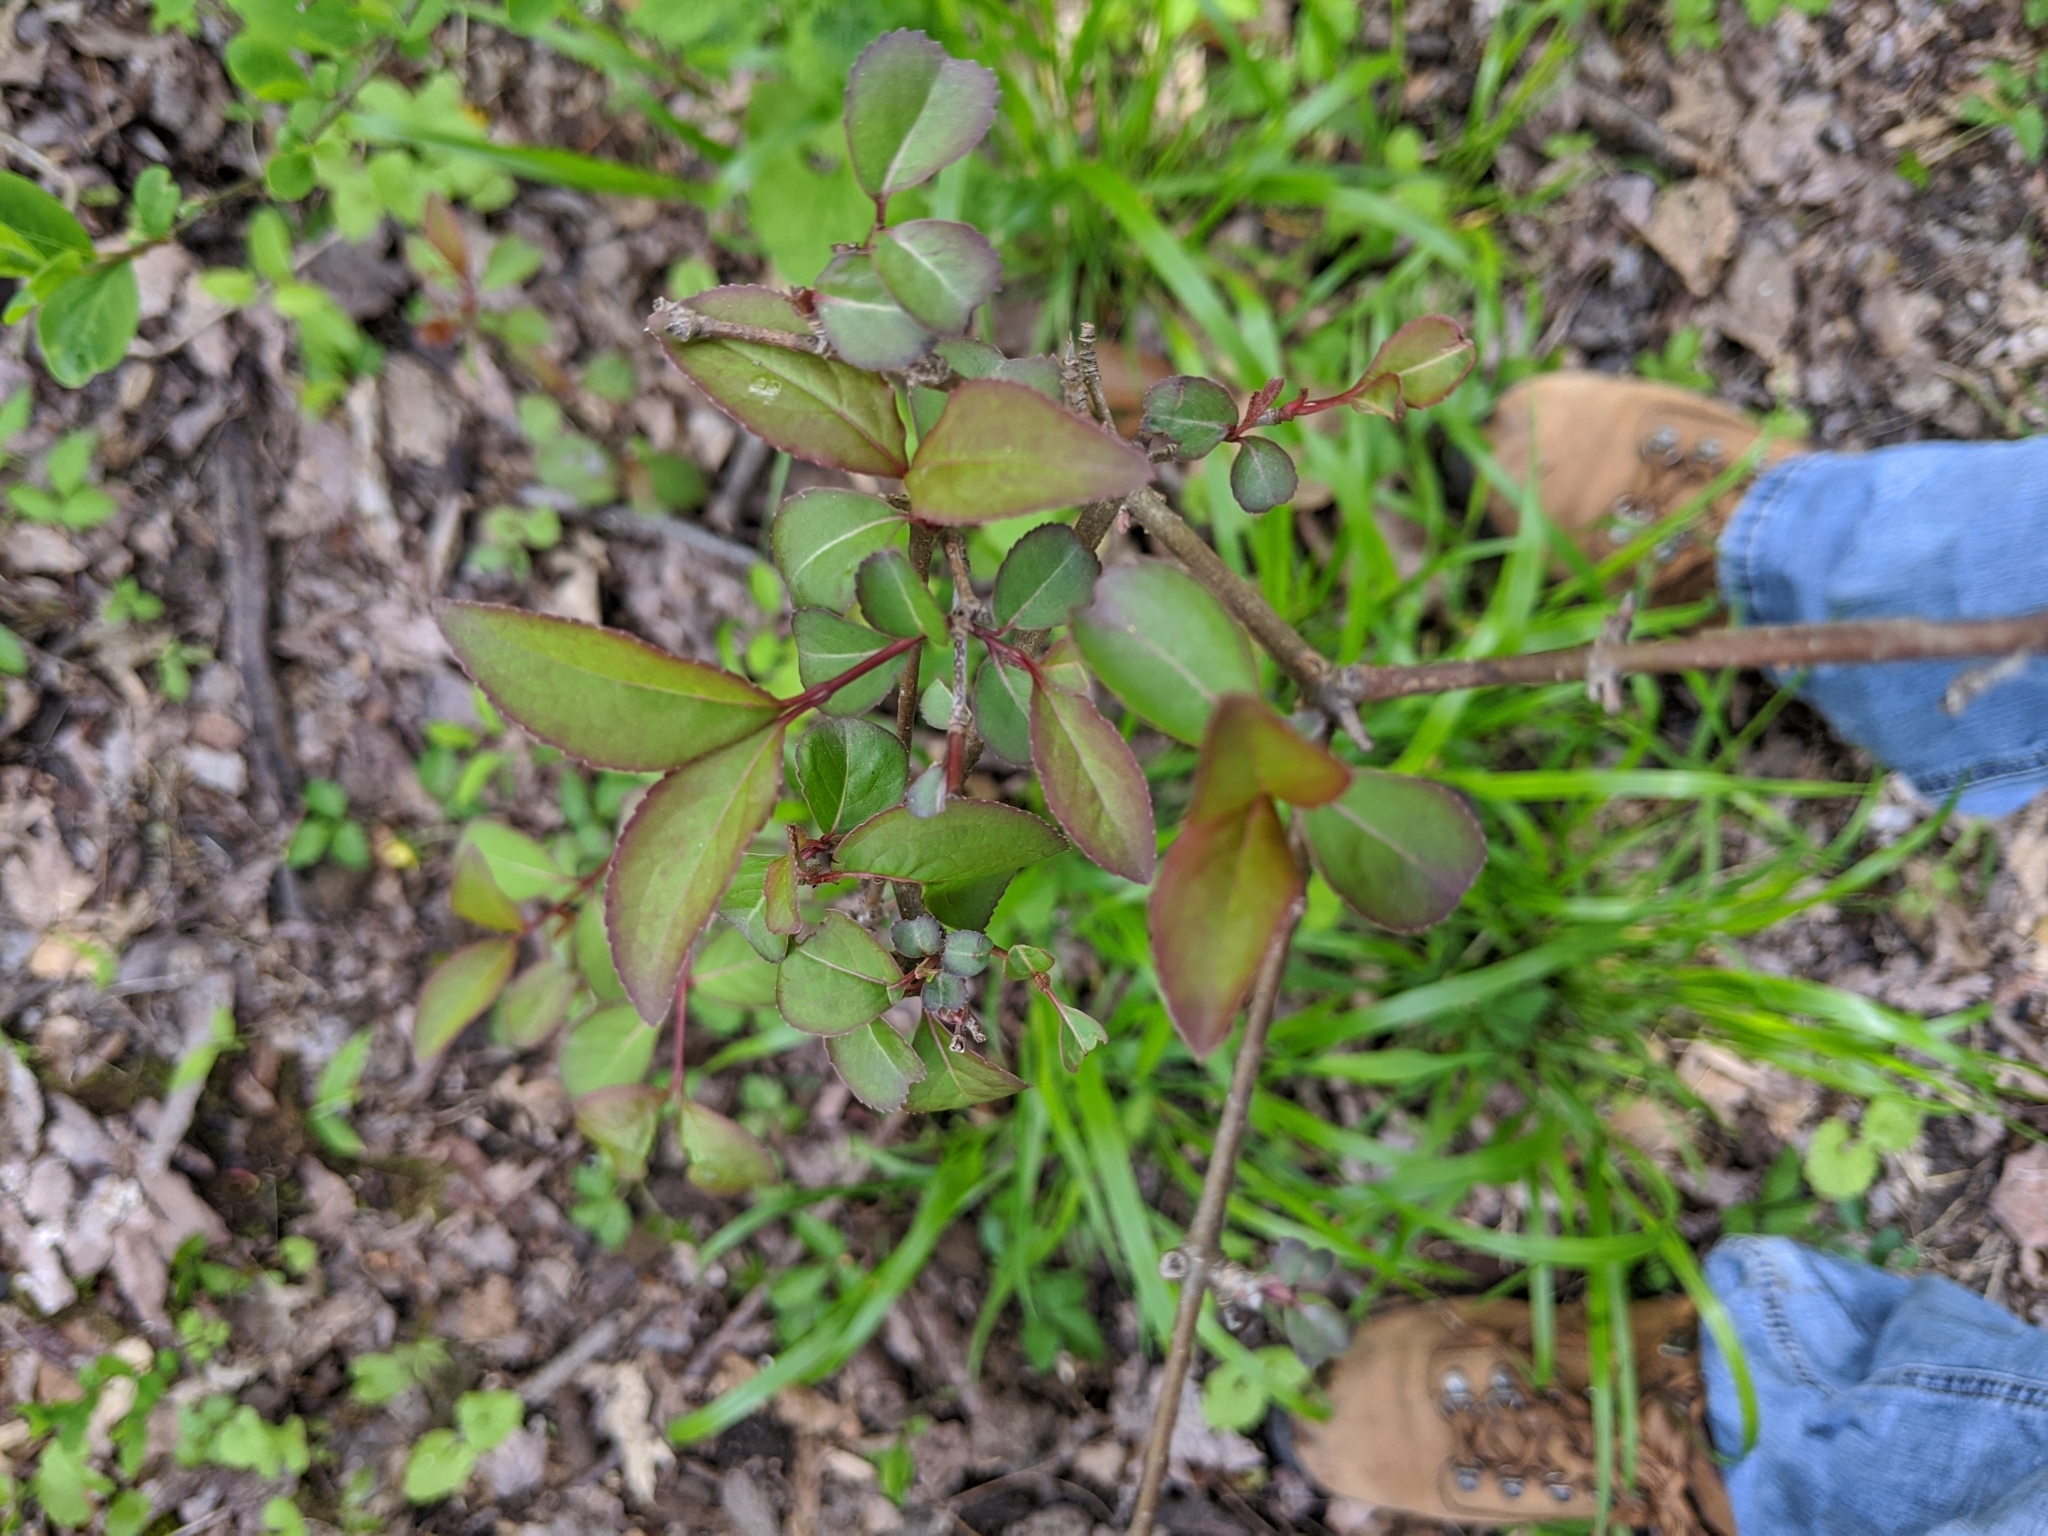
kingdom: Plantae
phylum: Tracheophyta
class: Magnoliopsida
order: Dipsacales
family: Viburnaceae
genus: Viburnum
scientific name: Viburnum prunifolium
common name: Black haw
